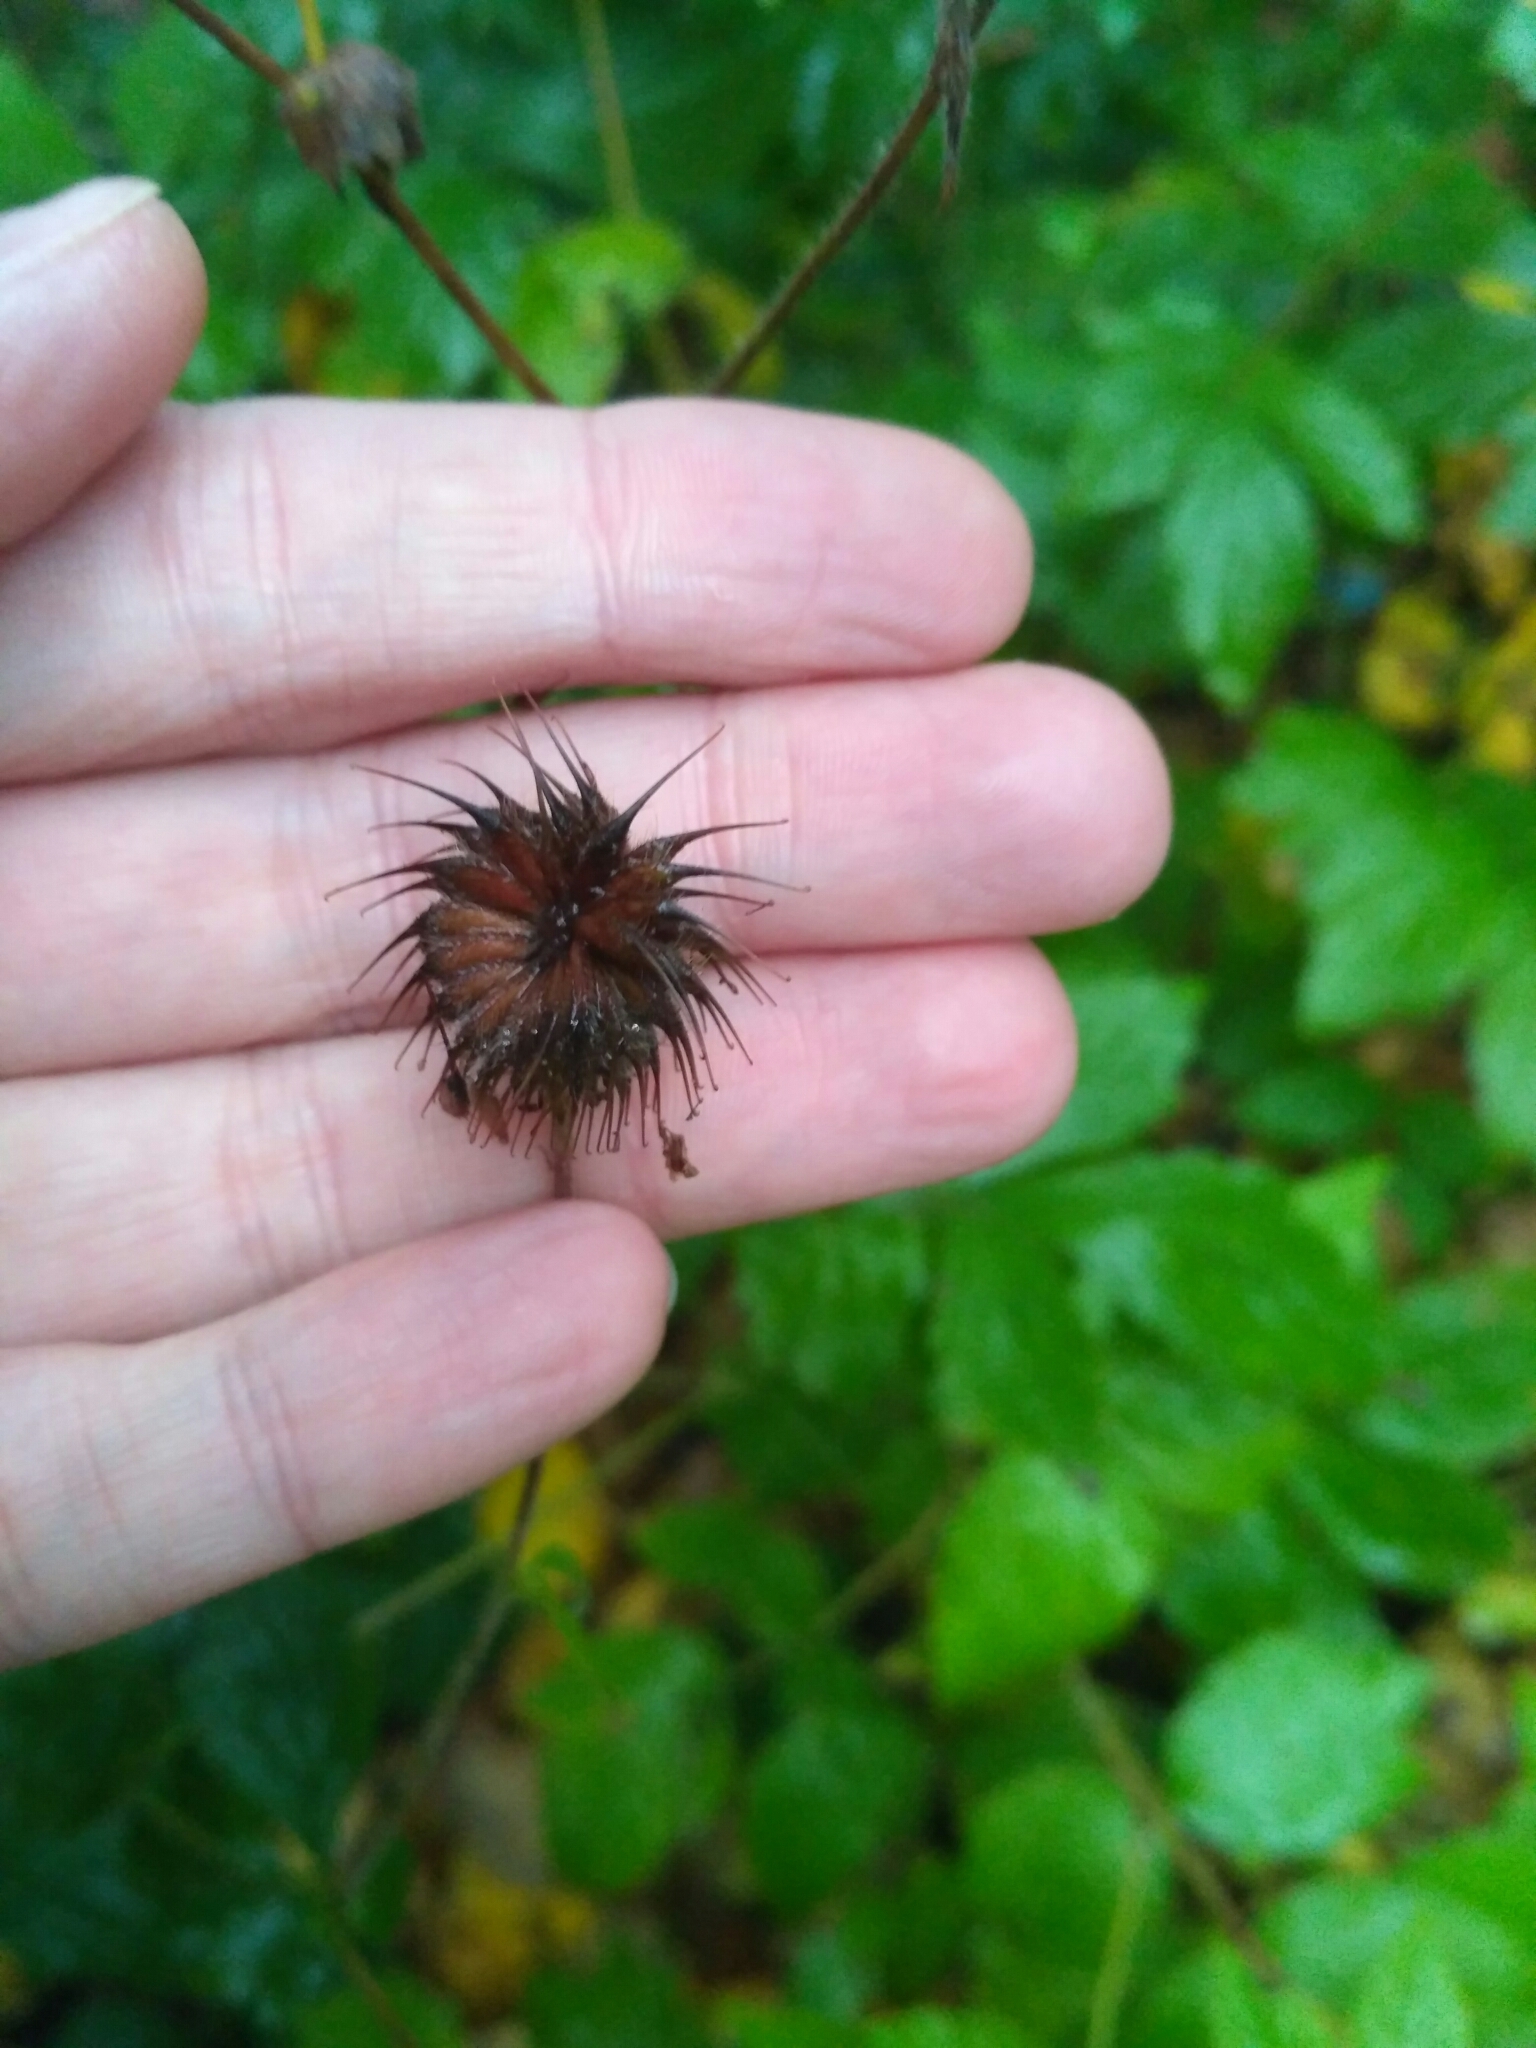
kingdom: Plantae
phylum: Tracheophyta
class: Magnoliopsida
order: Rosales
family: Rosaceae
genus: Geum
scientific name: Geum urbanum
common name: Wood avens
